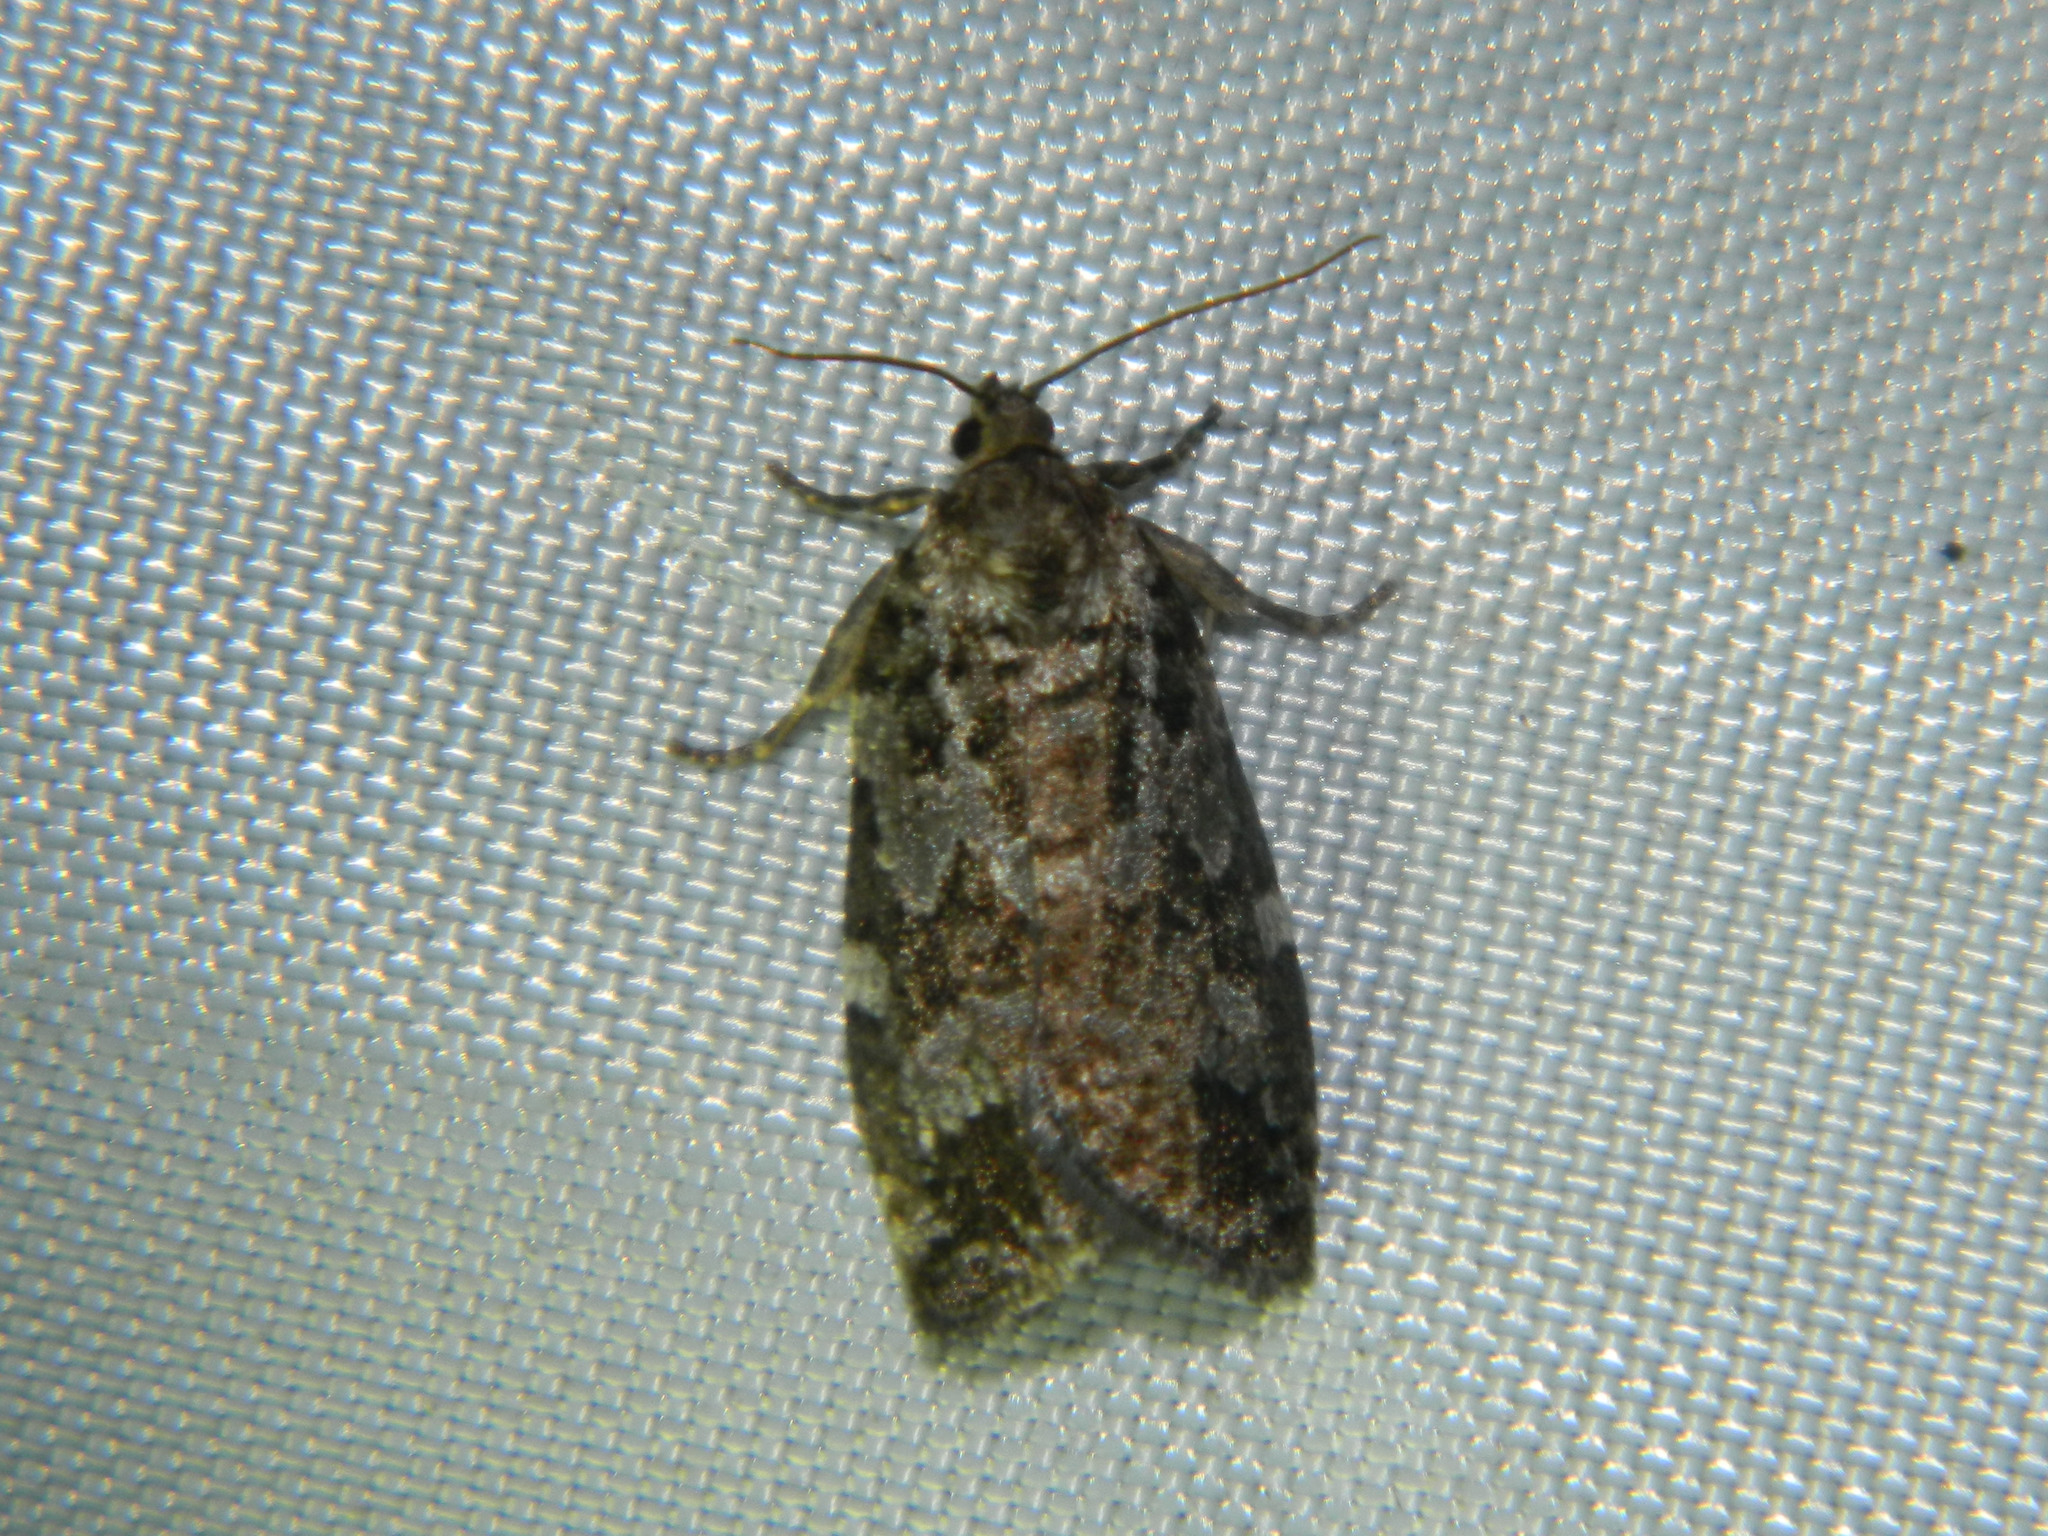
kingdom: Animalia
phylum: Arthropoda
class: Insecta
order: Lepidoptera
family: Tortricidae
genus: Choristoneura
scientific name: Choristoneura fumiferana
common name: Spruce budworm
